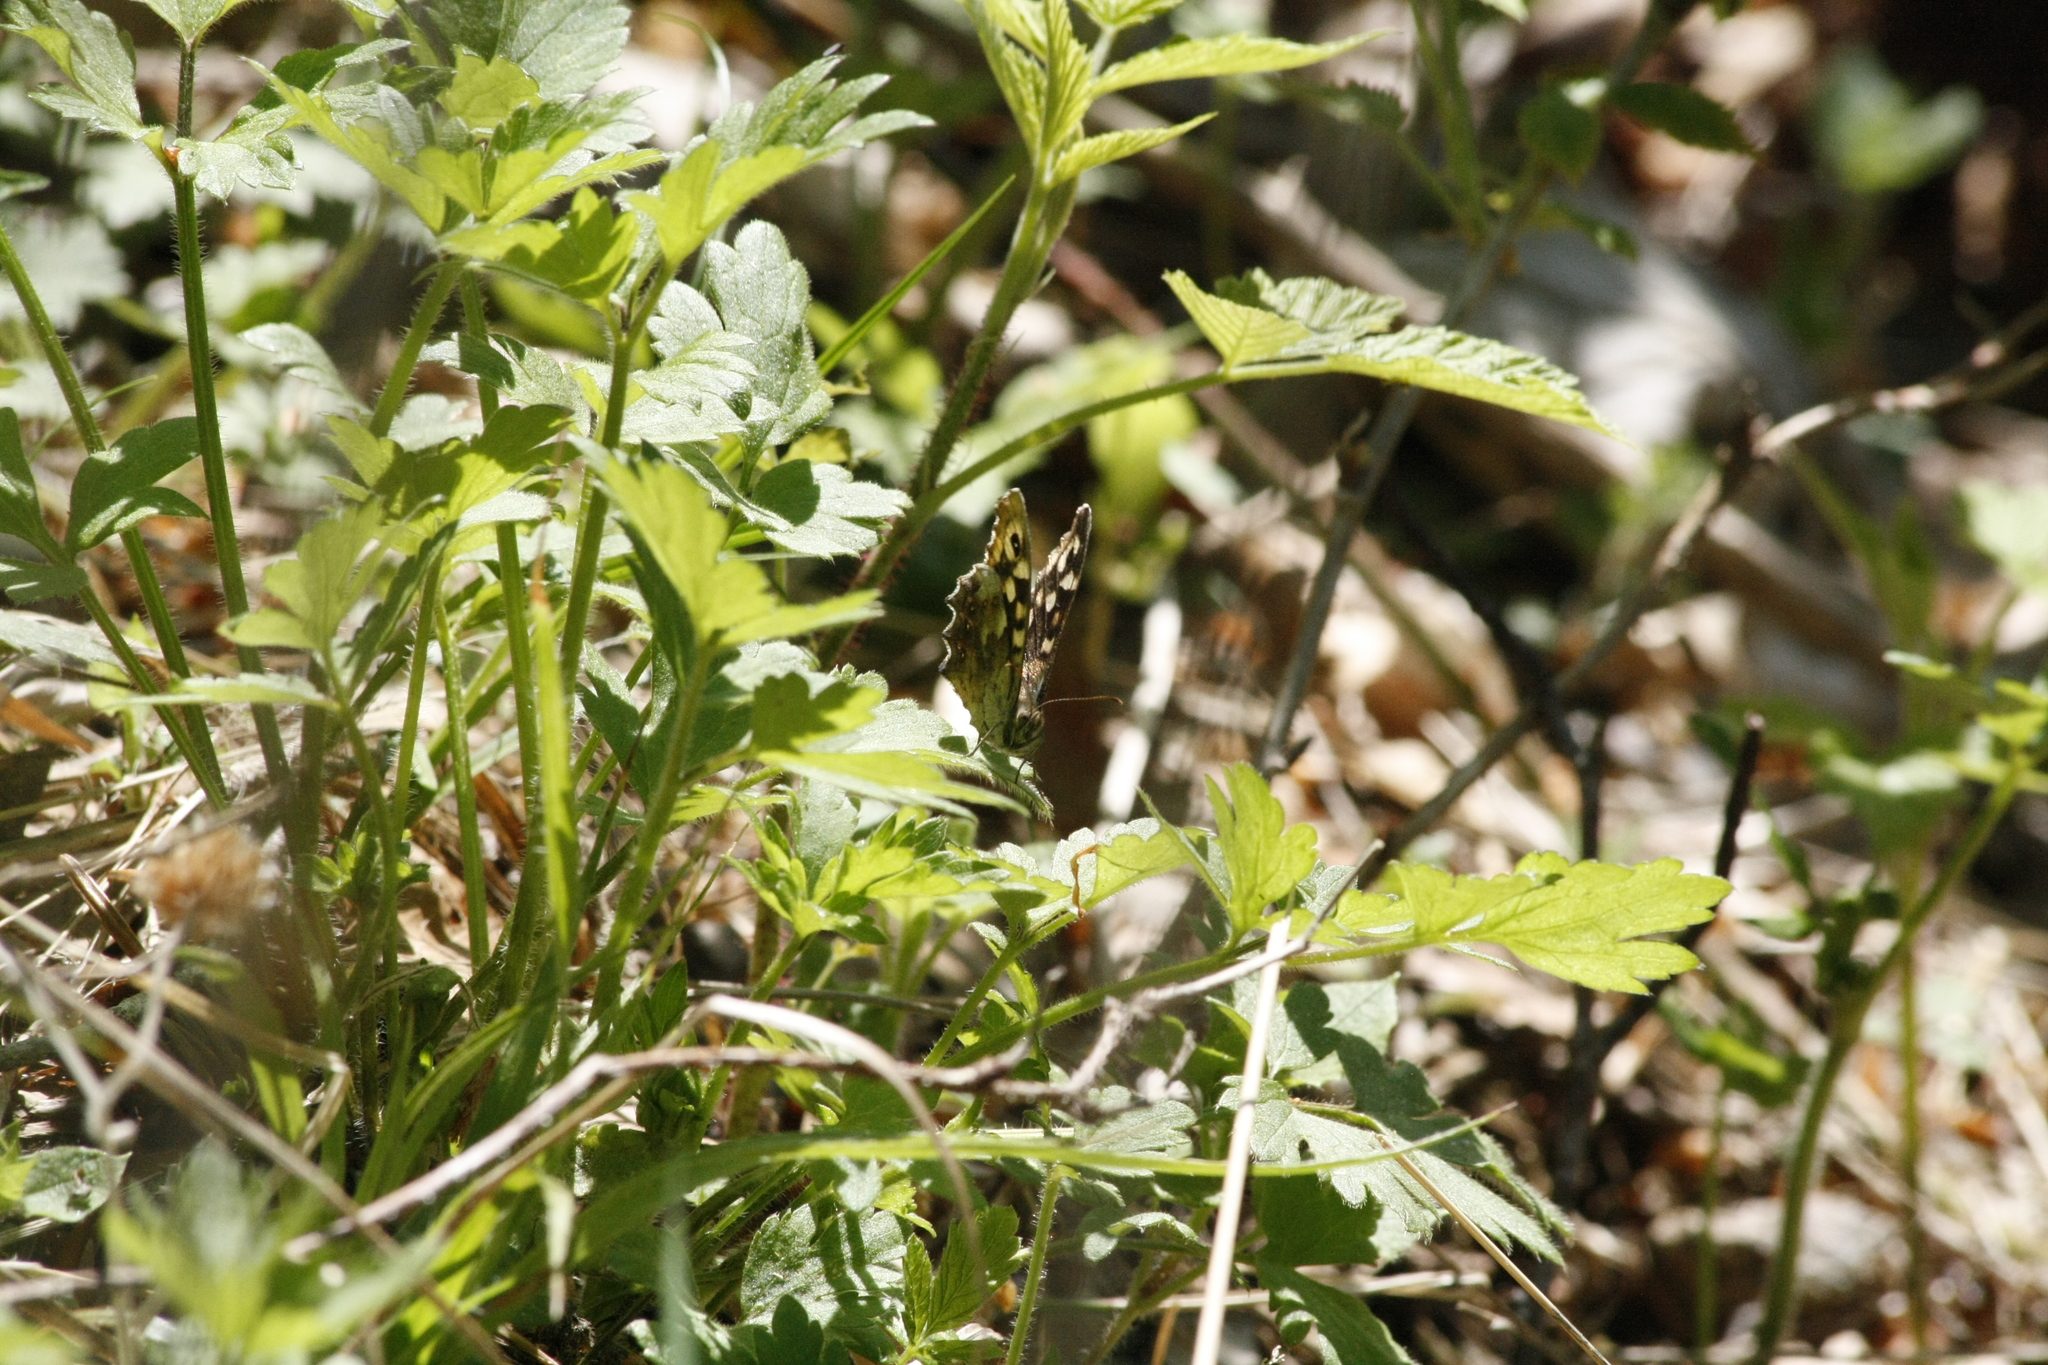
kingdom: Animalia
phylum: Arthropoda
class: Insecta
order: Lepidoptera
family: Nymphalidae
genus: Pararge
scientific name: Pararge aegeria
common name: Speckled wood
